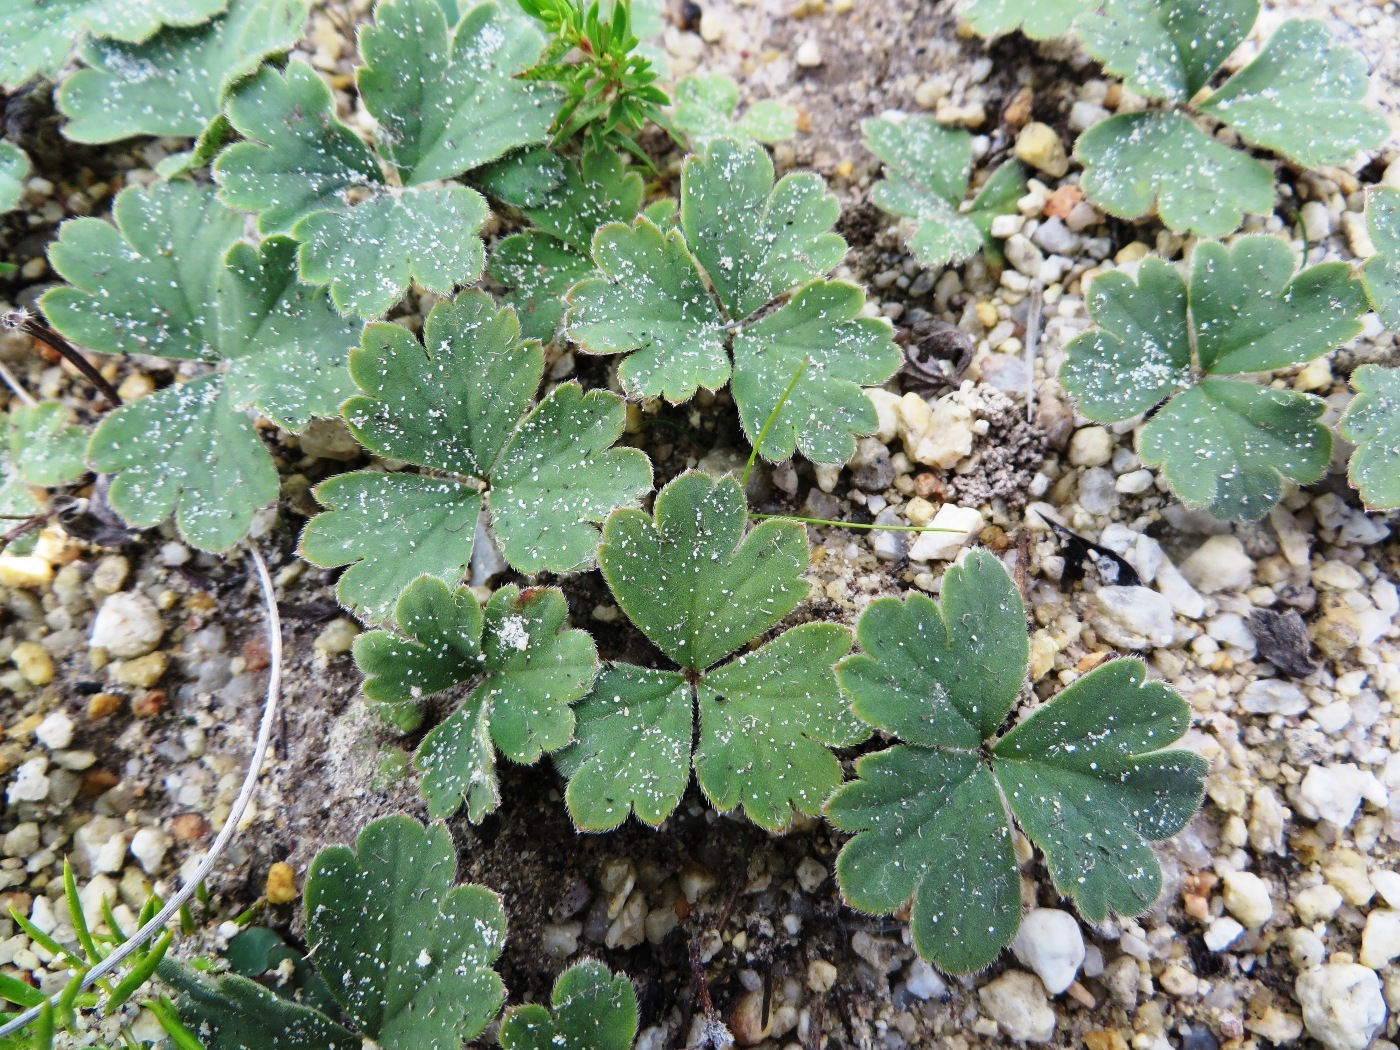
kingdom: Plantae
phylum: Tracheophyta
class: Magnoliopsida
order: Geraniales
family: Geraniaceae
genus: Pelargonium
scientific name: Pelargonium ternifolium
